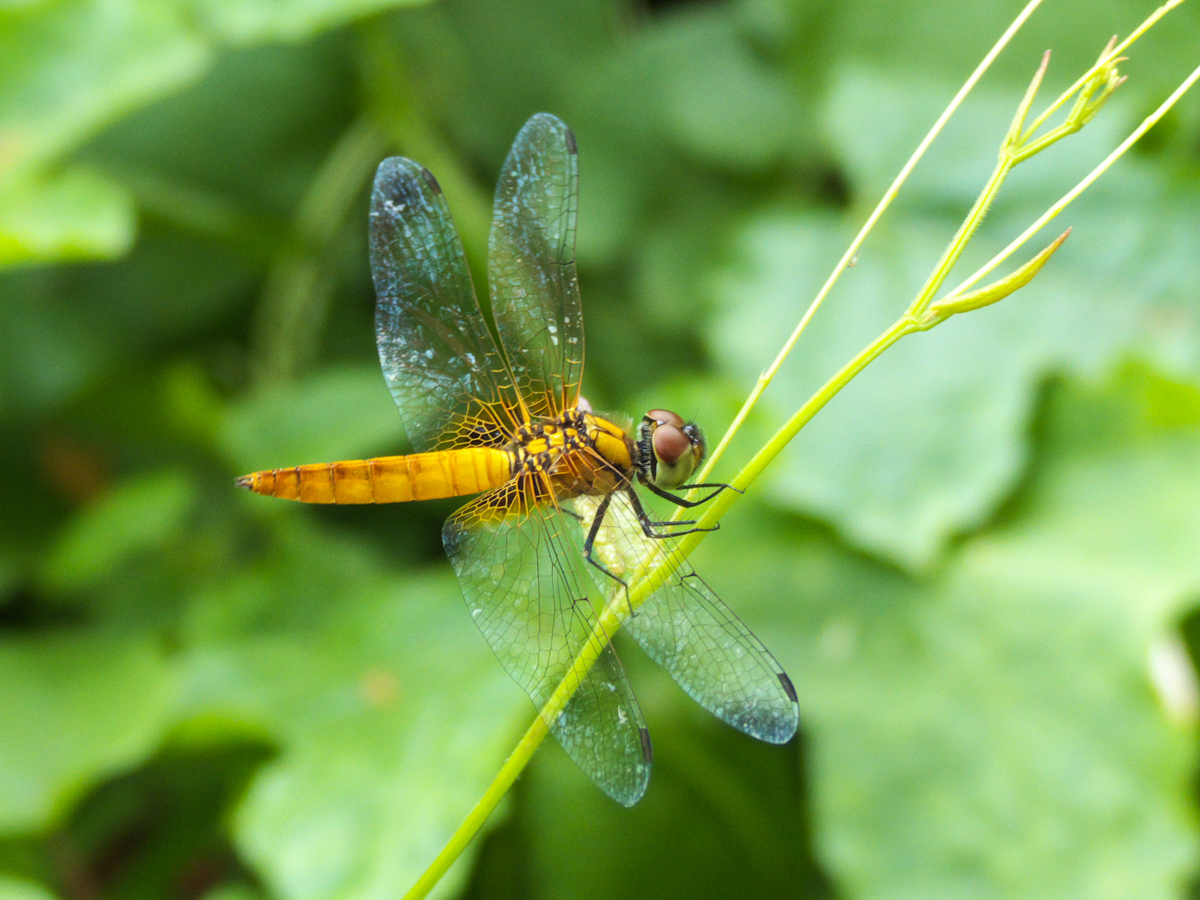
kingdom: Animalia
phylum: Arthropoda
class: Insecta
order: Odonata
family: Libellulidae
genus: Aethriamanta
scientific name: Aethriamanta brevipennis
